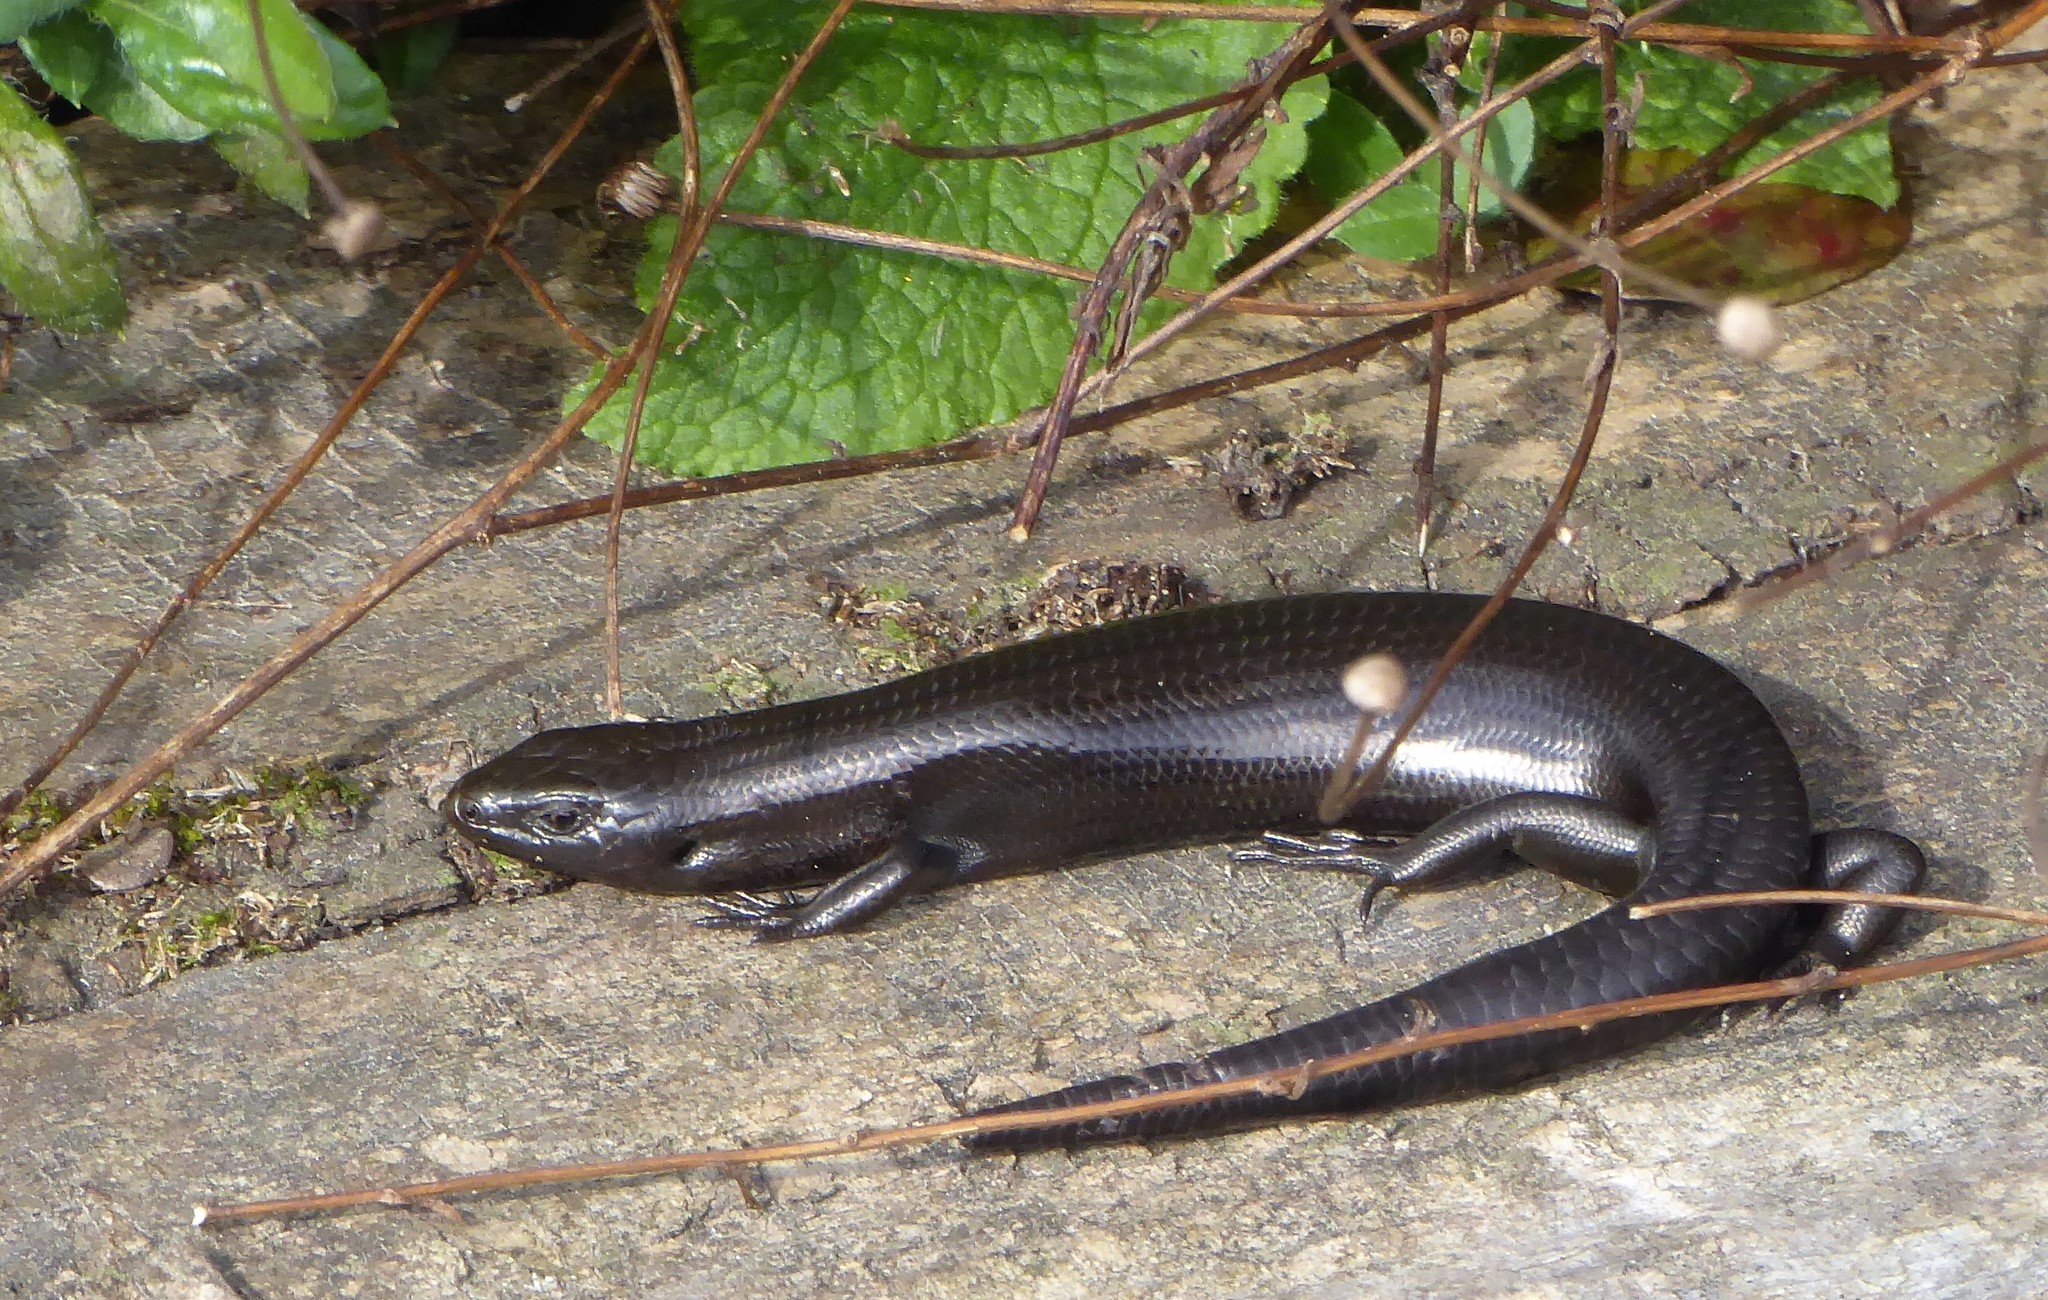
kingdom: Animalia
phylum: Chordata
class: Squamata
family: Scincidae
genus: Oligosoma
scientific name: Oligosoma polychroma
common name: Common new zealand skink
